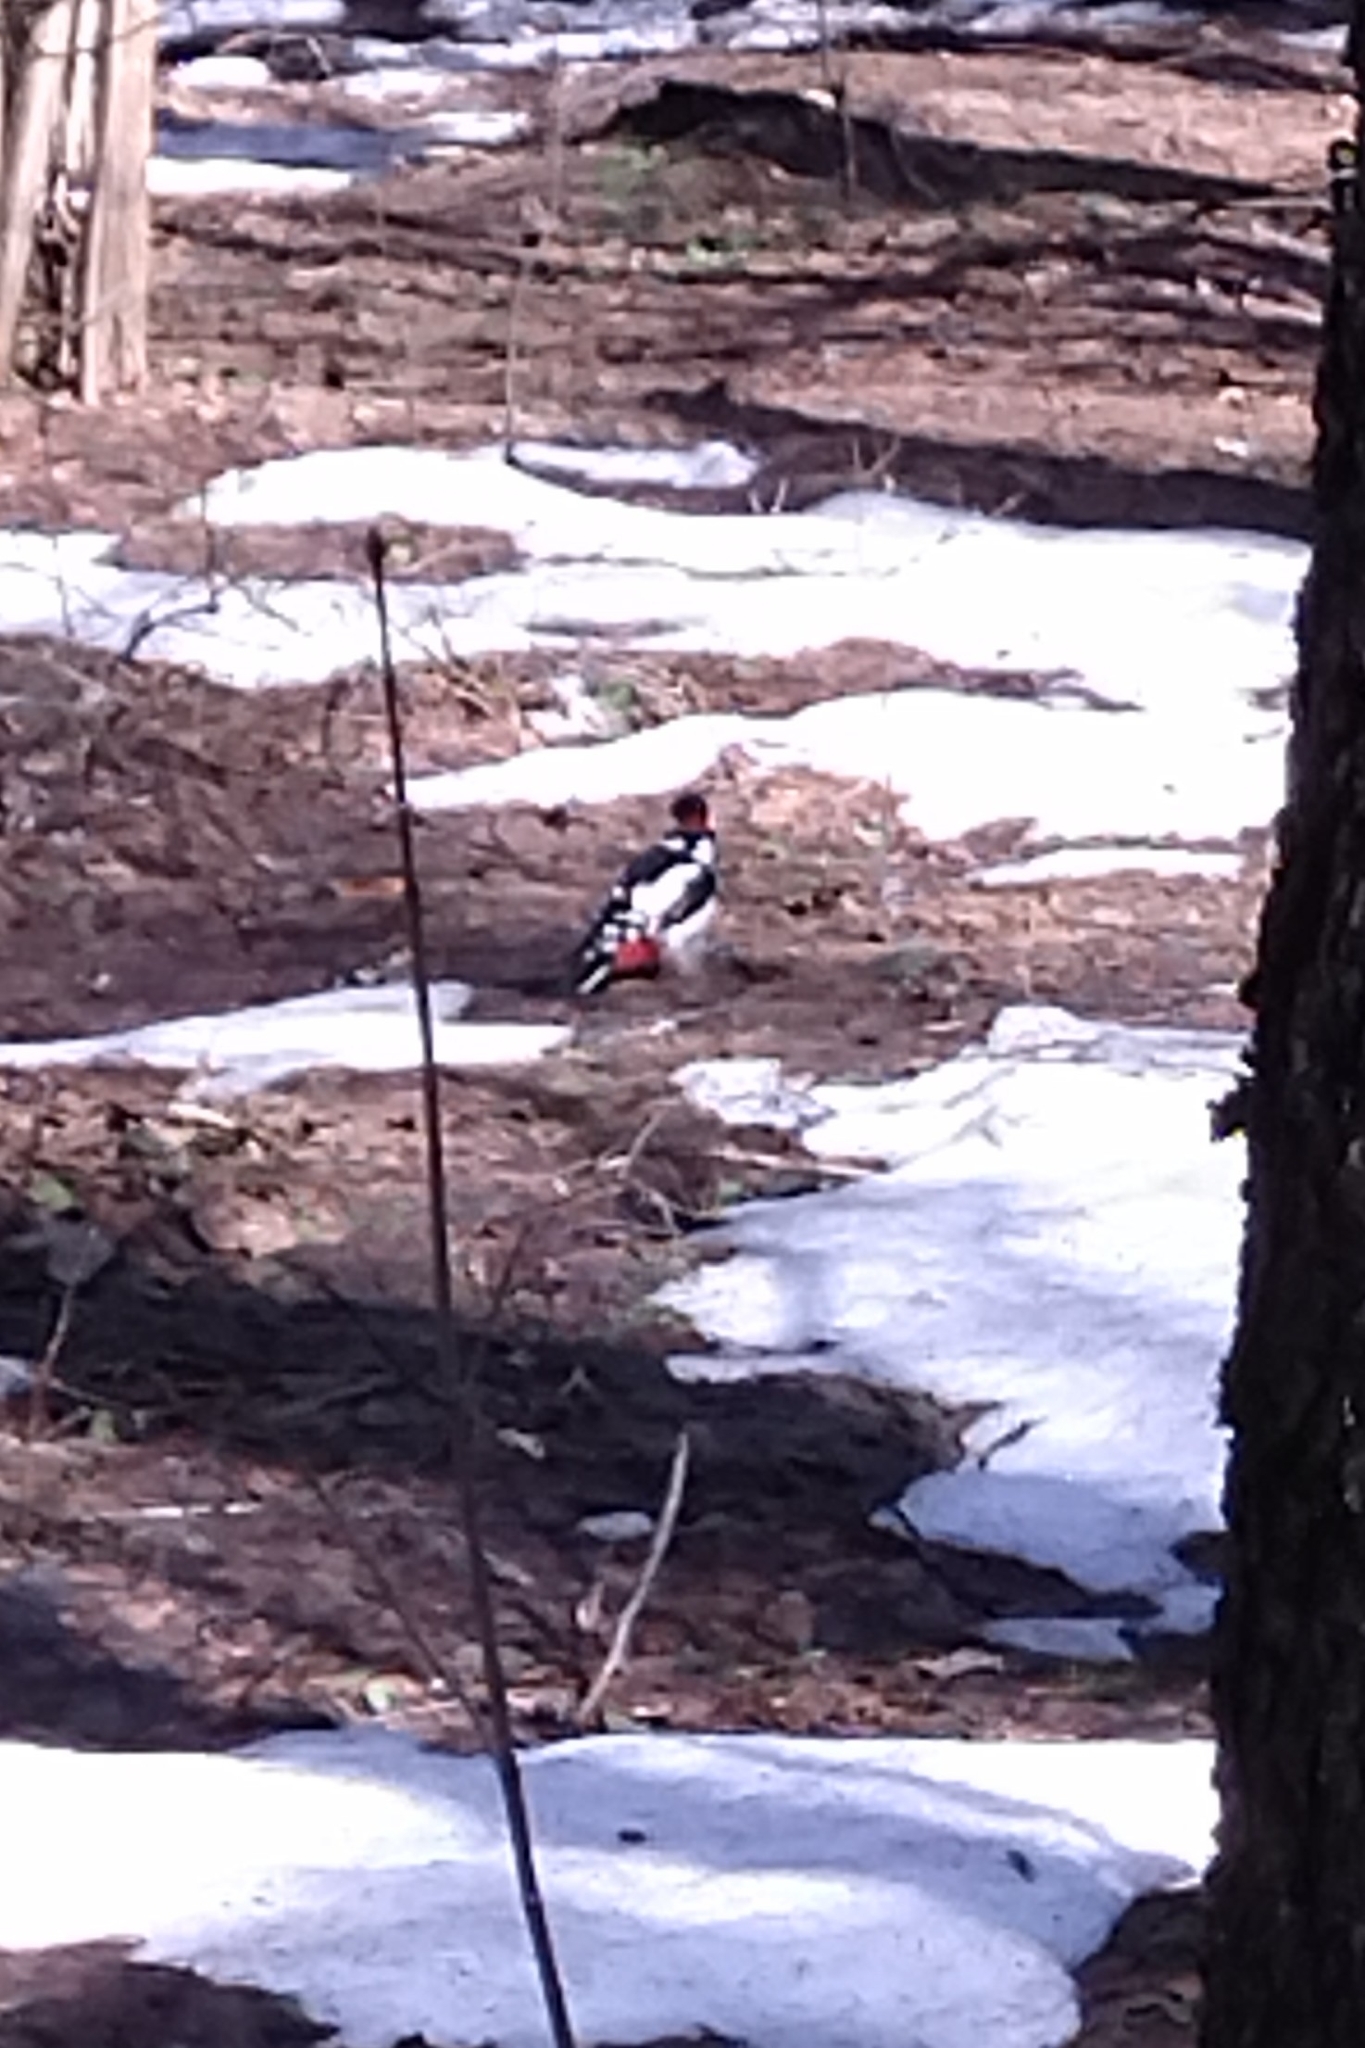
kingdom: Animalia
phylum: Chordata
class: Aves
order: Piciformes
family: Picidae
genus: Dendrocopos
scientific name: Dendrocopos major
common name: Great spotted woodpecker
